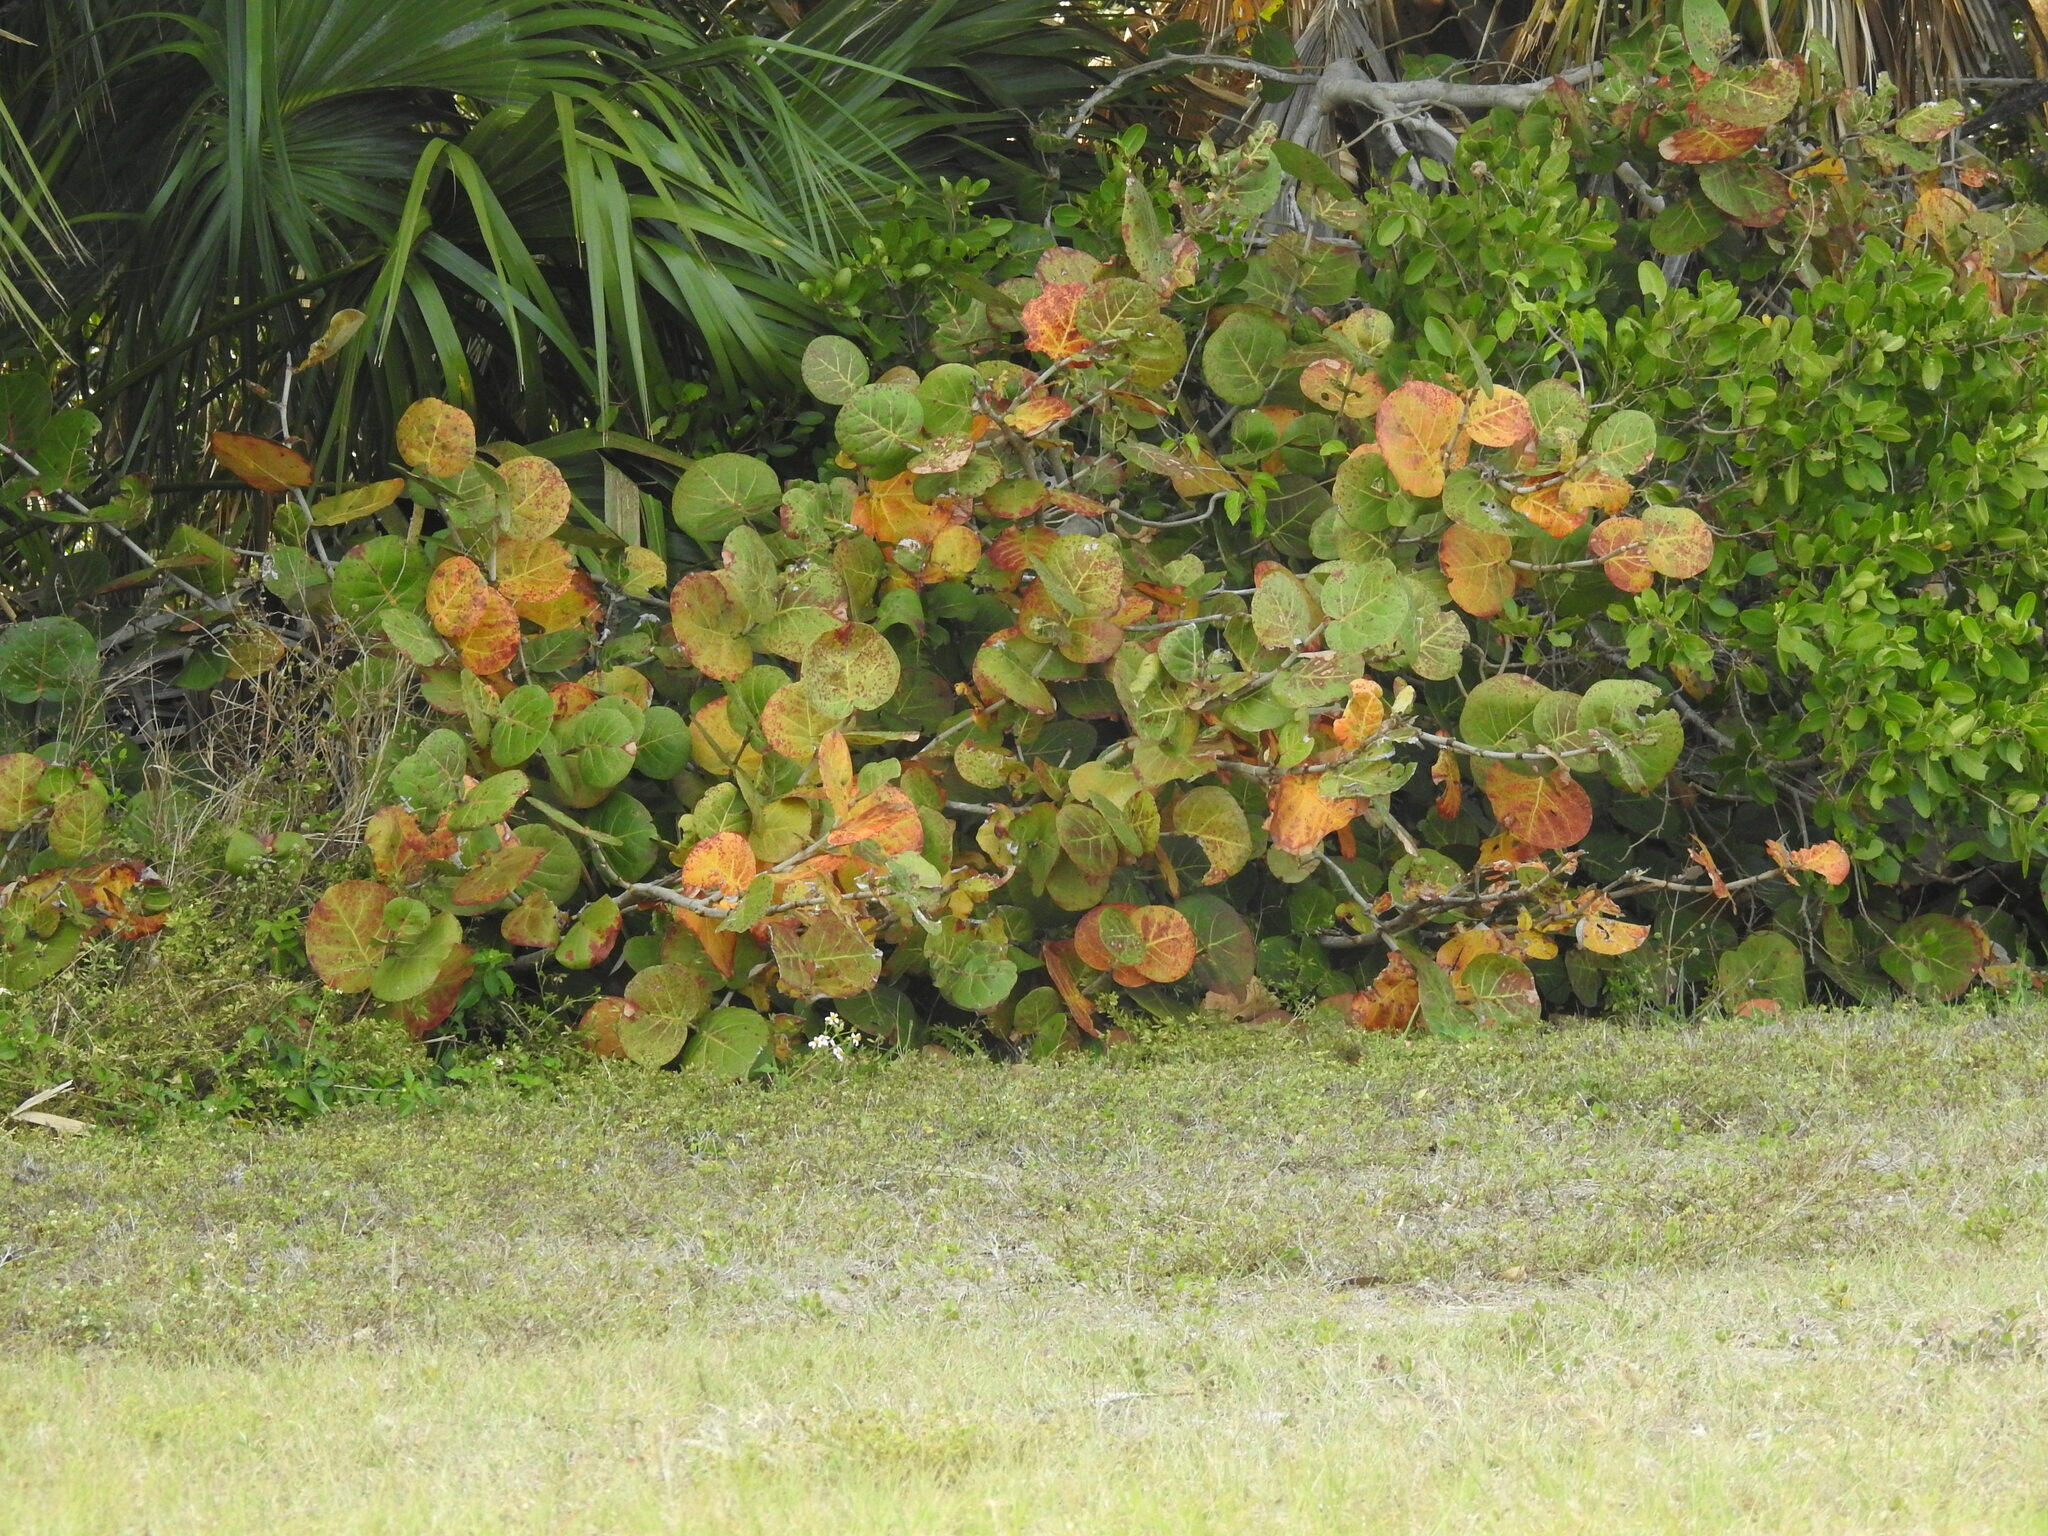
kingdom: Plantae
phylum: Tracheophyta
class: Magnoliopsida
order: Caryophyllales
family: Polygonaceae
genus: Coccoloba
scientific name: Coccoloba uvifera
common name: Seagrape
